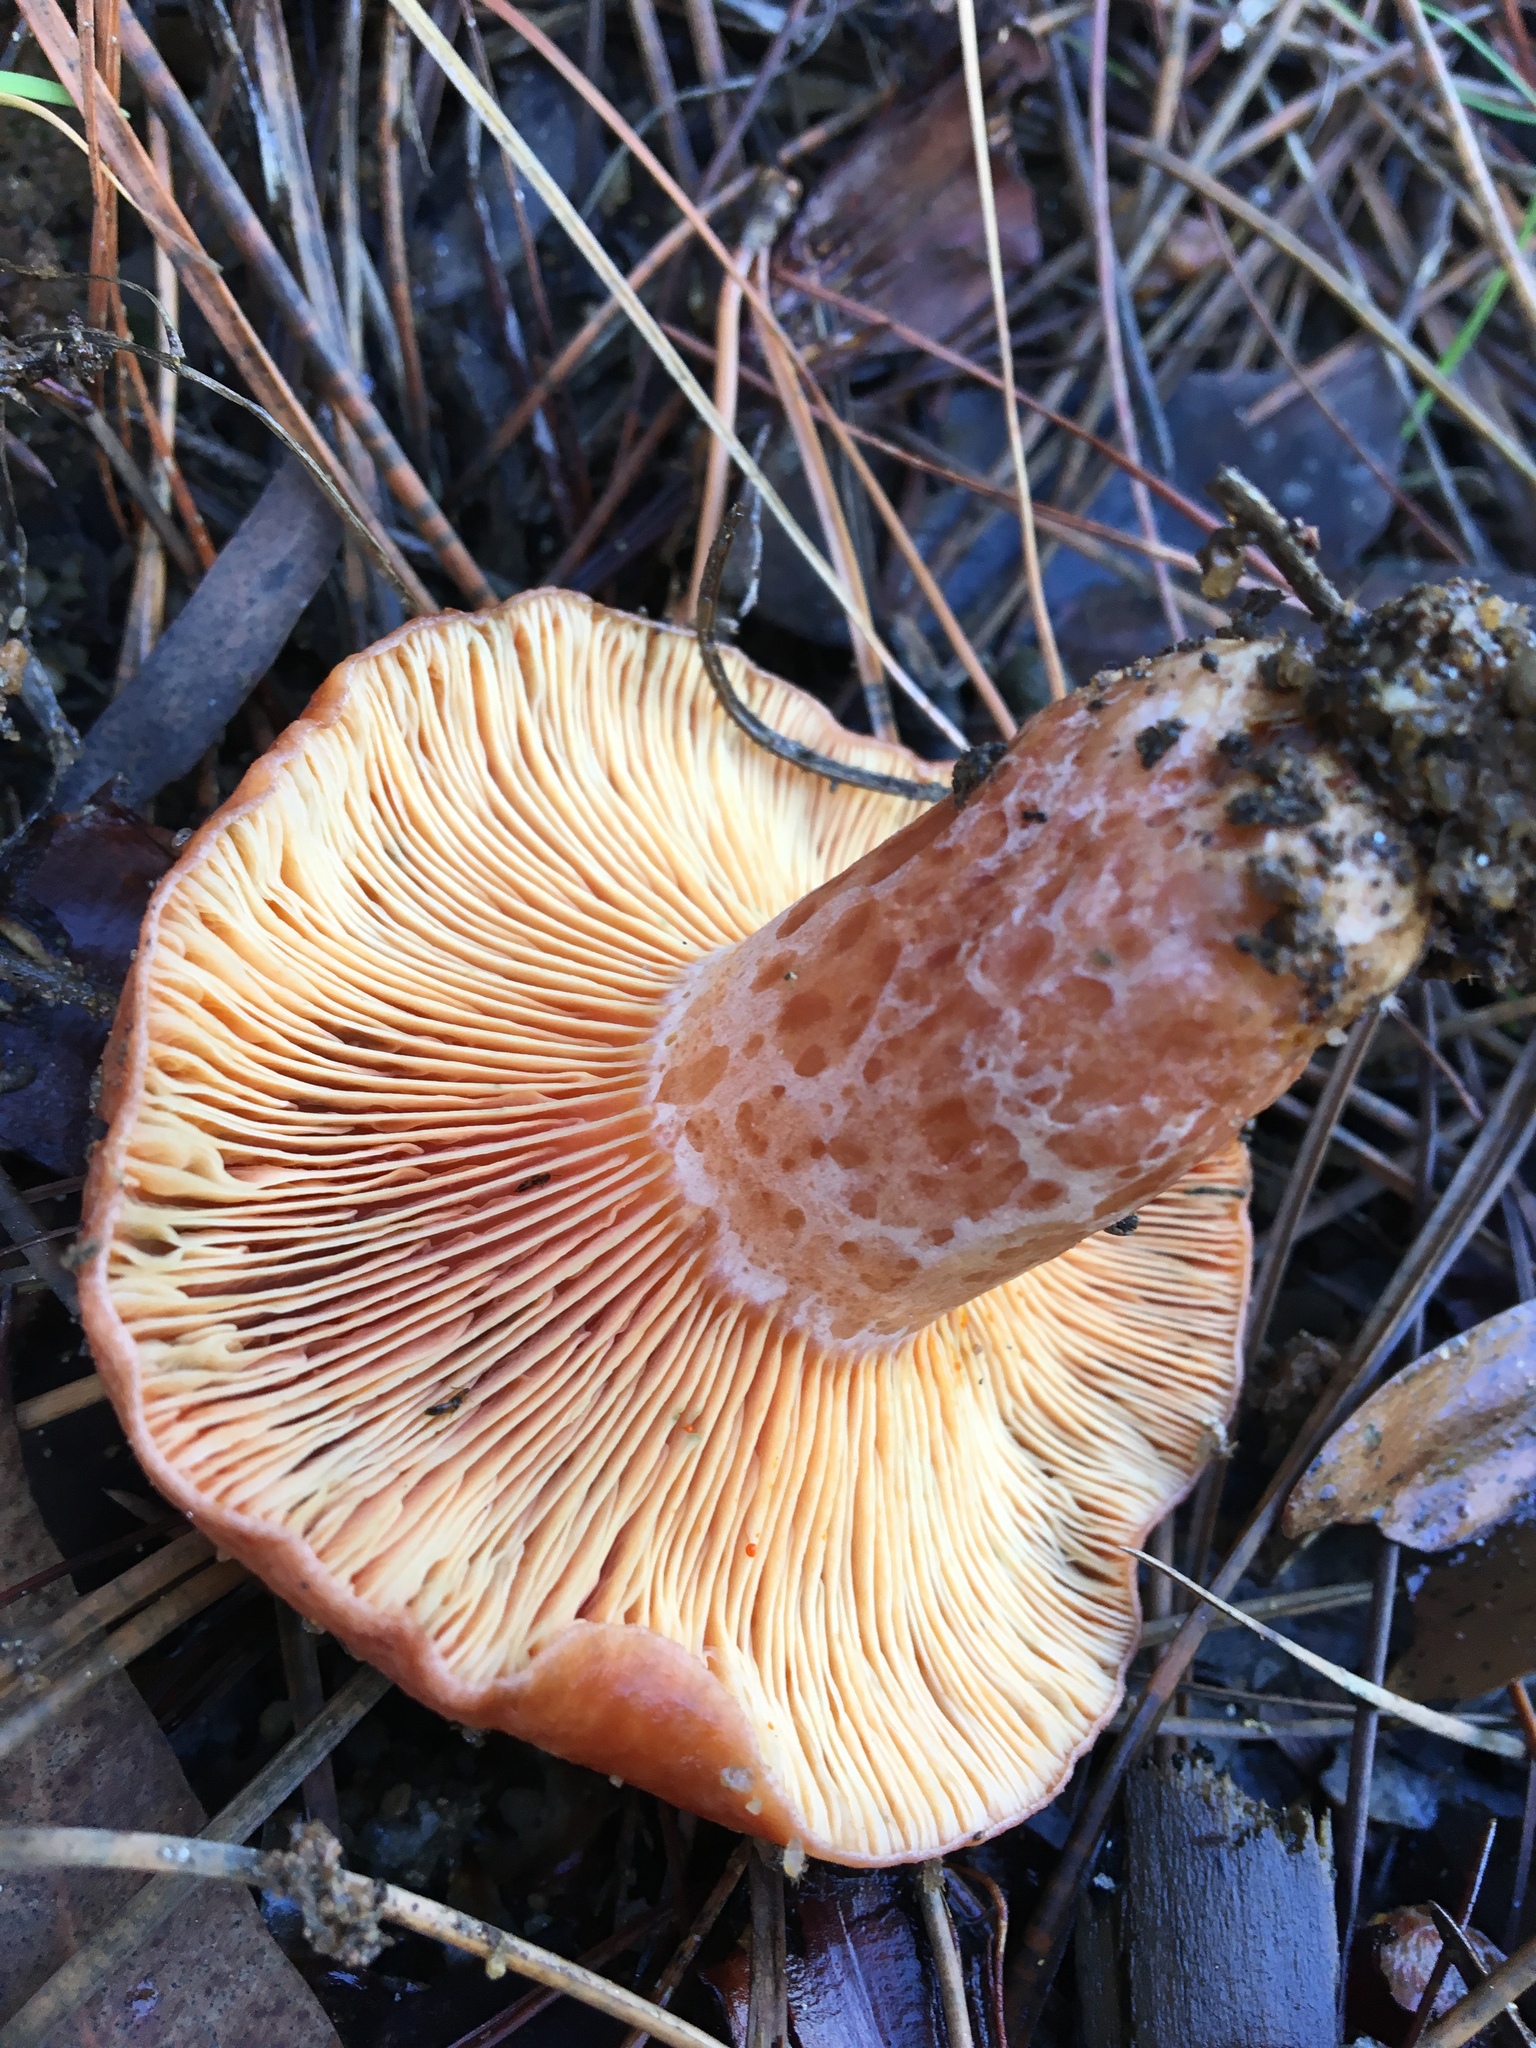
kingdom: Fungi
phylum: Basidiomycota
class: Agaricomycetes
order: Russulales
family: Russulaceae
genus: Lactarius
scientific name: Lactarius deliciosus
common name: Saffron milk-cap
